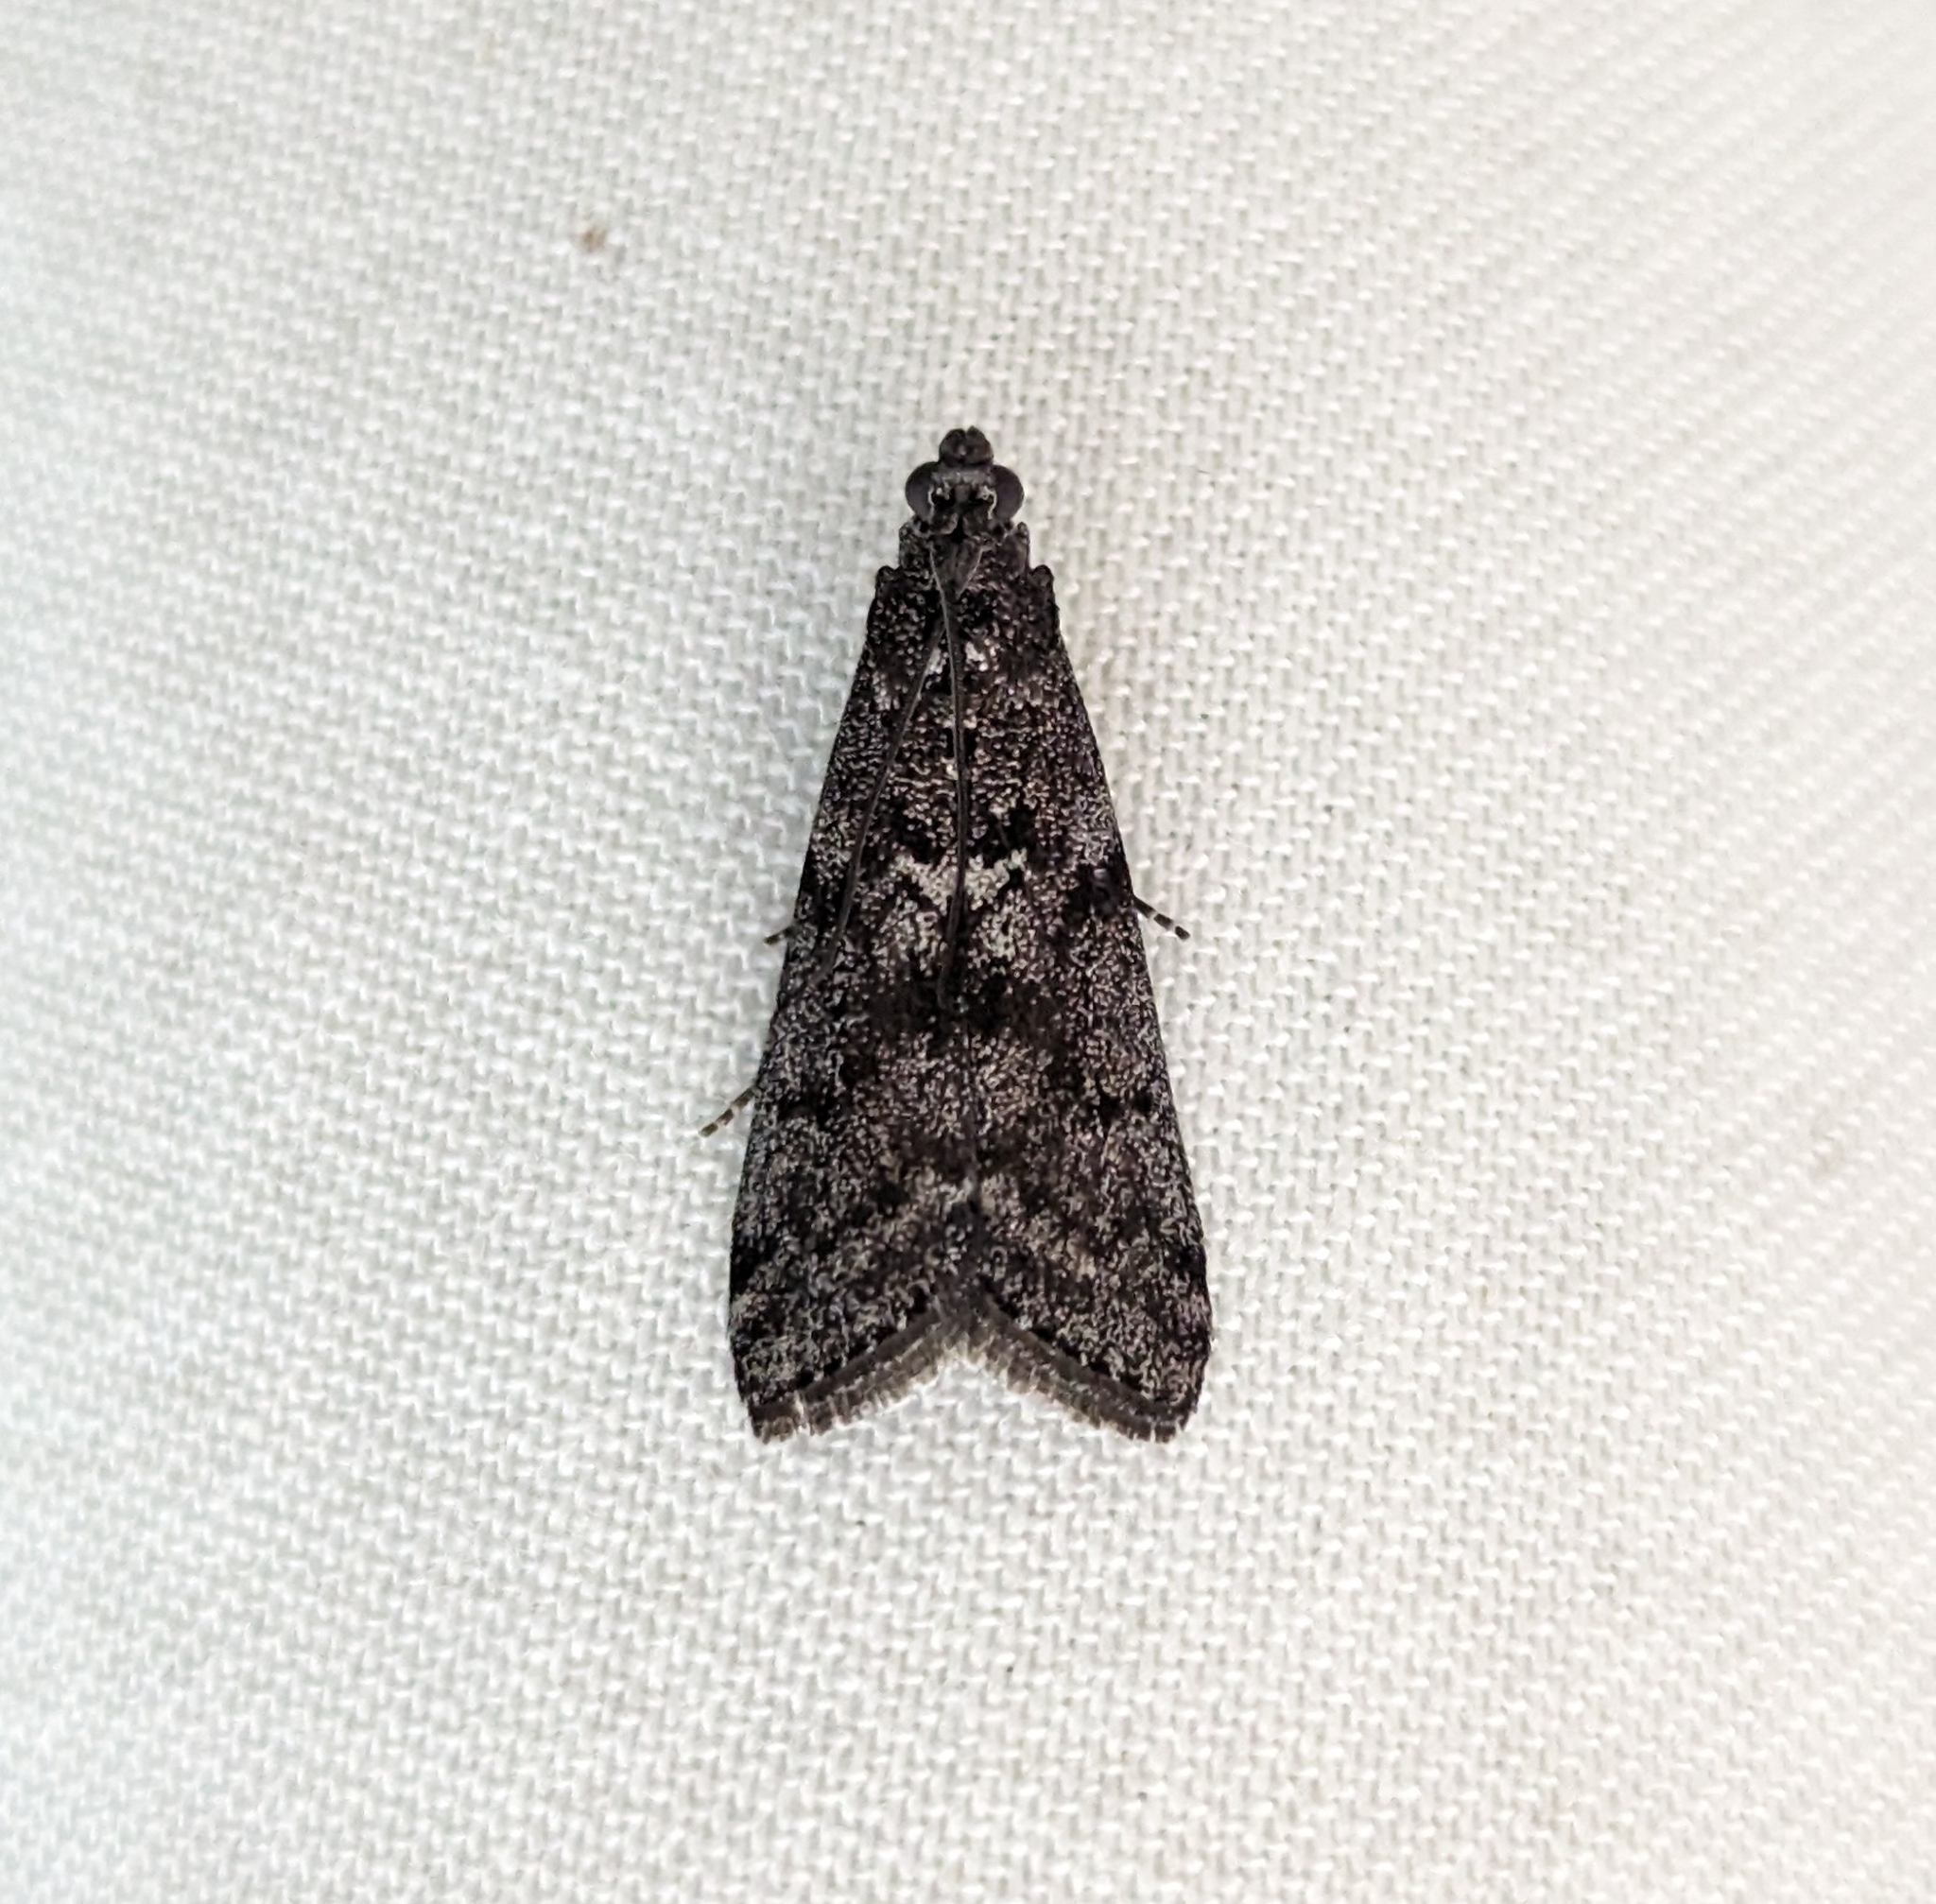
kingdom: Animalia
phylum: Arthropoda
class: Insecta
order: Lepidoptera
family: Pyralidae
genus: Pyla
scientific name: Pyla fusca
